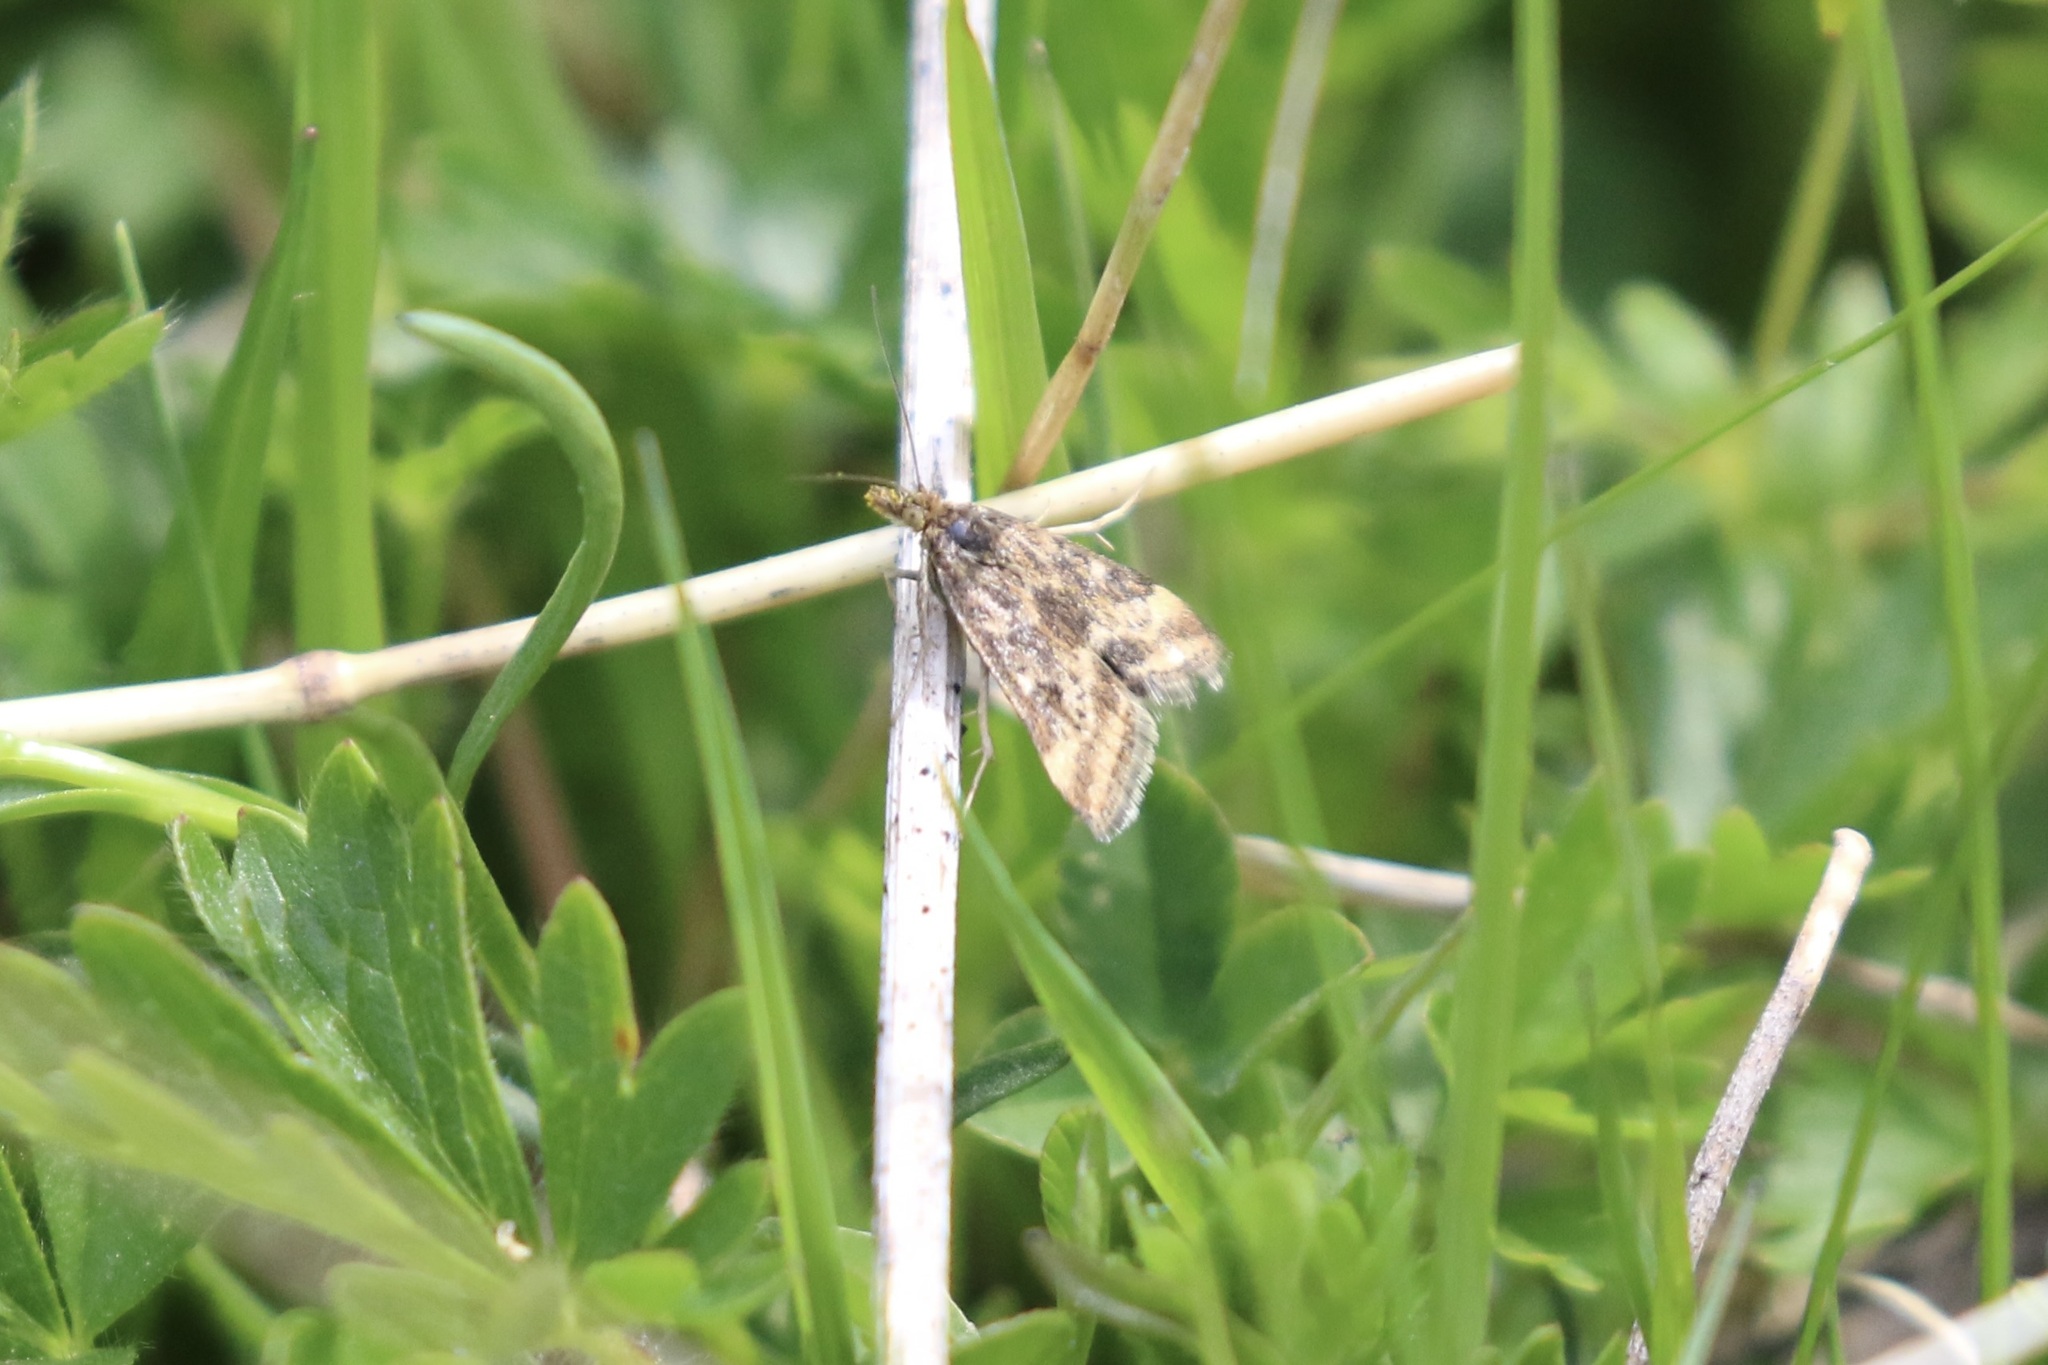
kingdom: Animalia
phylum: Arthropoda
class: Insecta
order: Lepidoptera
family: Crambidae
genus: Pyrausta
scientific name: Pyrausta despicata
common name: Straw-barred pearl
